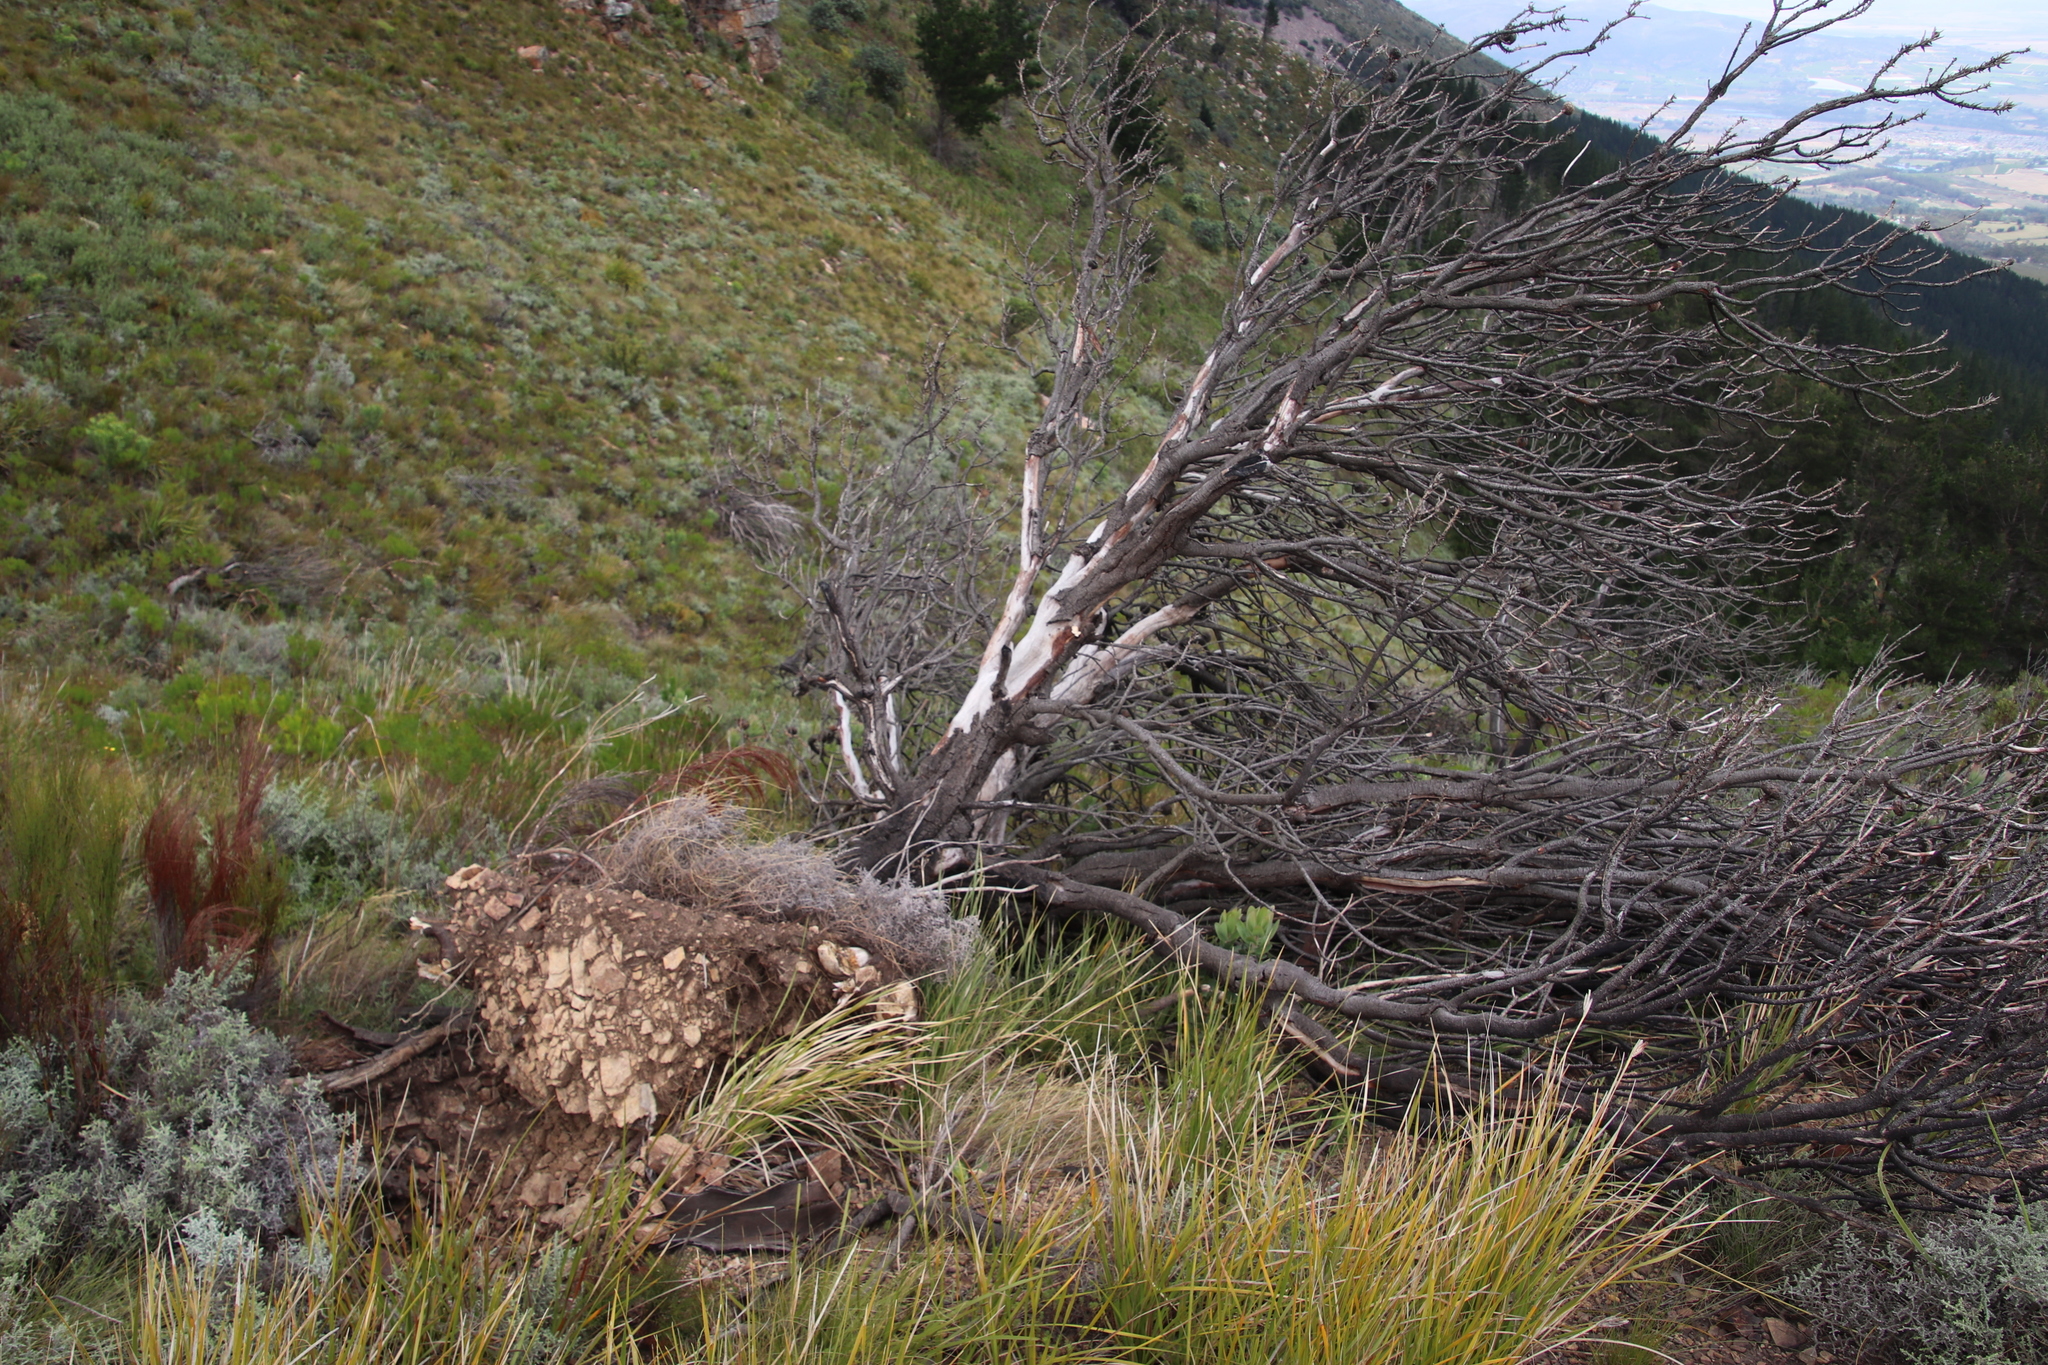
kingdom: Plantae
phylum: Tracheophyta
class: Magnoliopsida
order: Proteales
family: Proteaceae
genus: Protea
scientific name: Protea laurifolia
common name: Grey-leaf sugarbsh
